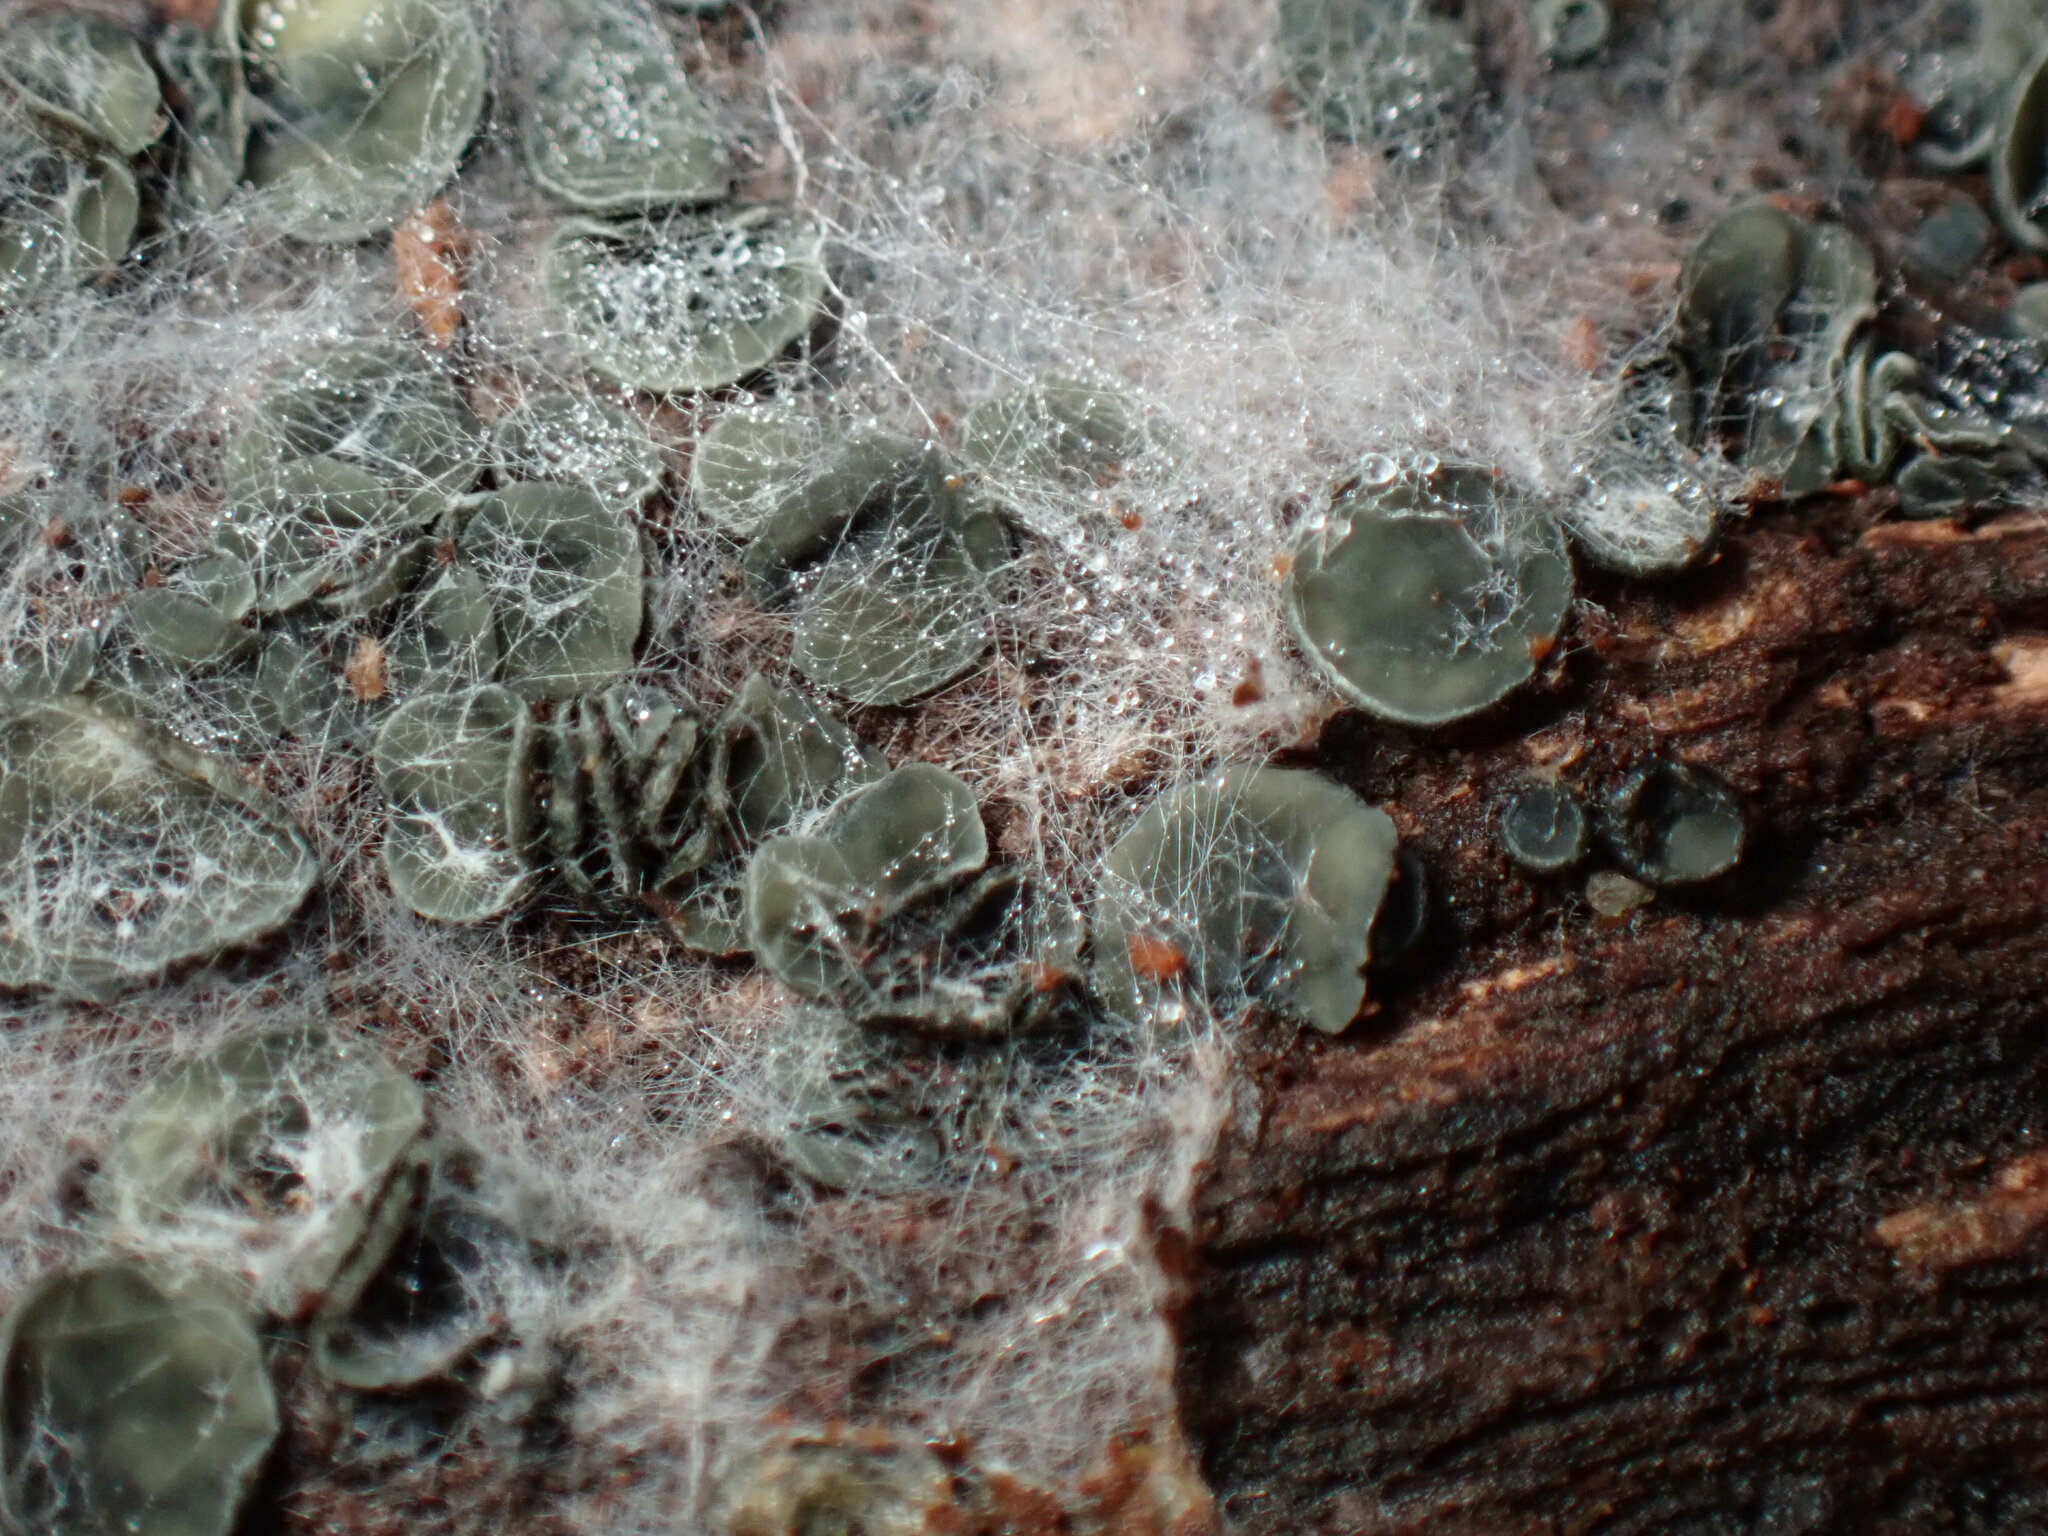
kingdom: Fungi
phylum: Ascomycota
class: Leotiomycetes
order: Helotiales
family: Chlorospleniaceae
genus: Chlorosplenium
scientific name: Chlorosplenium chlora
